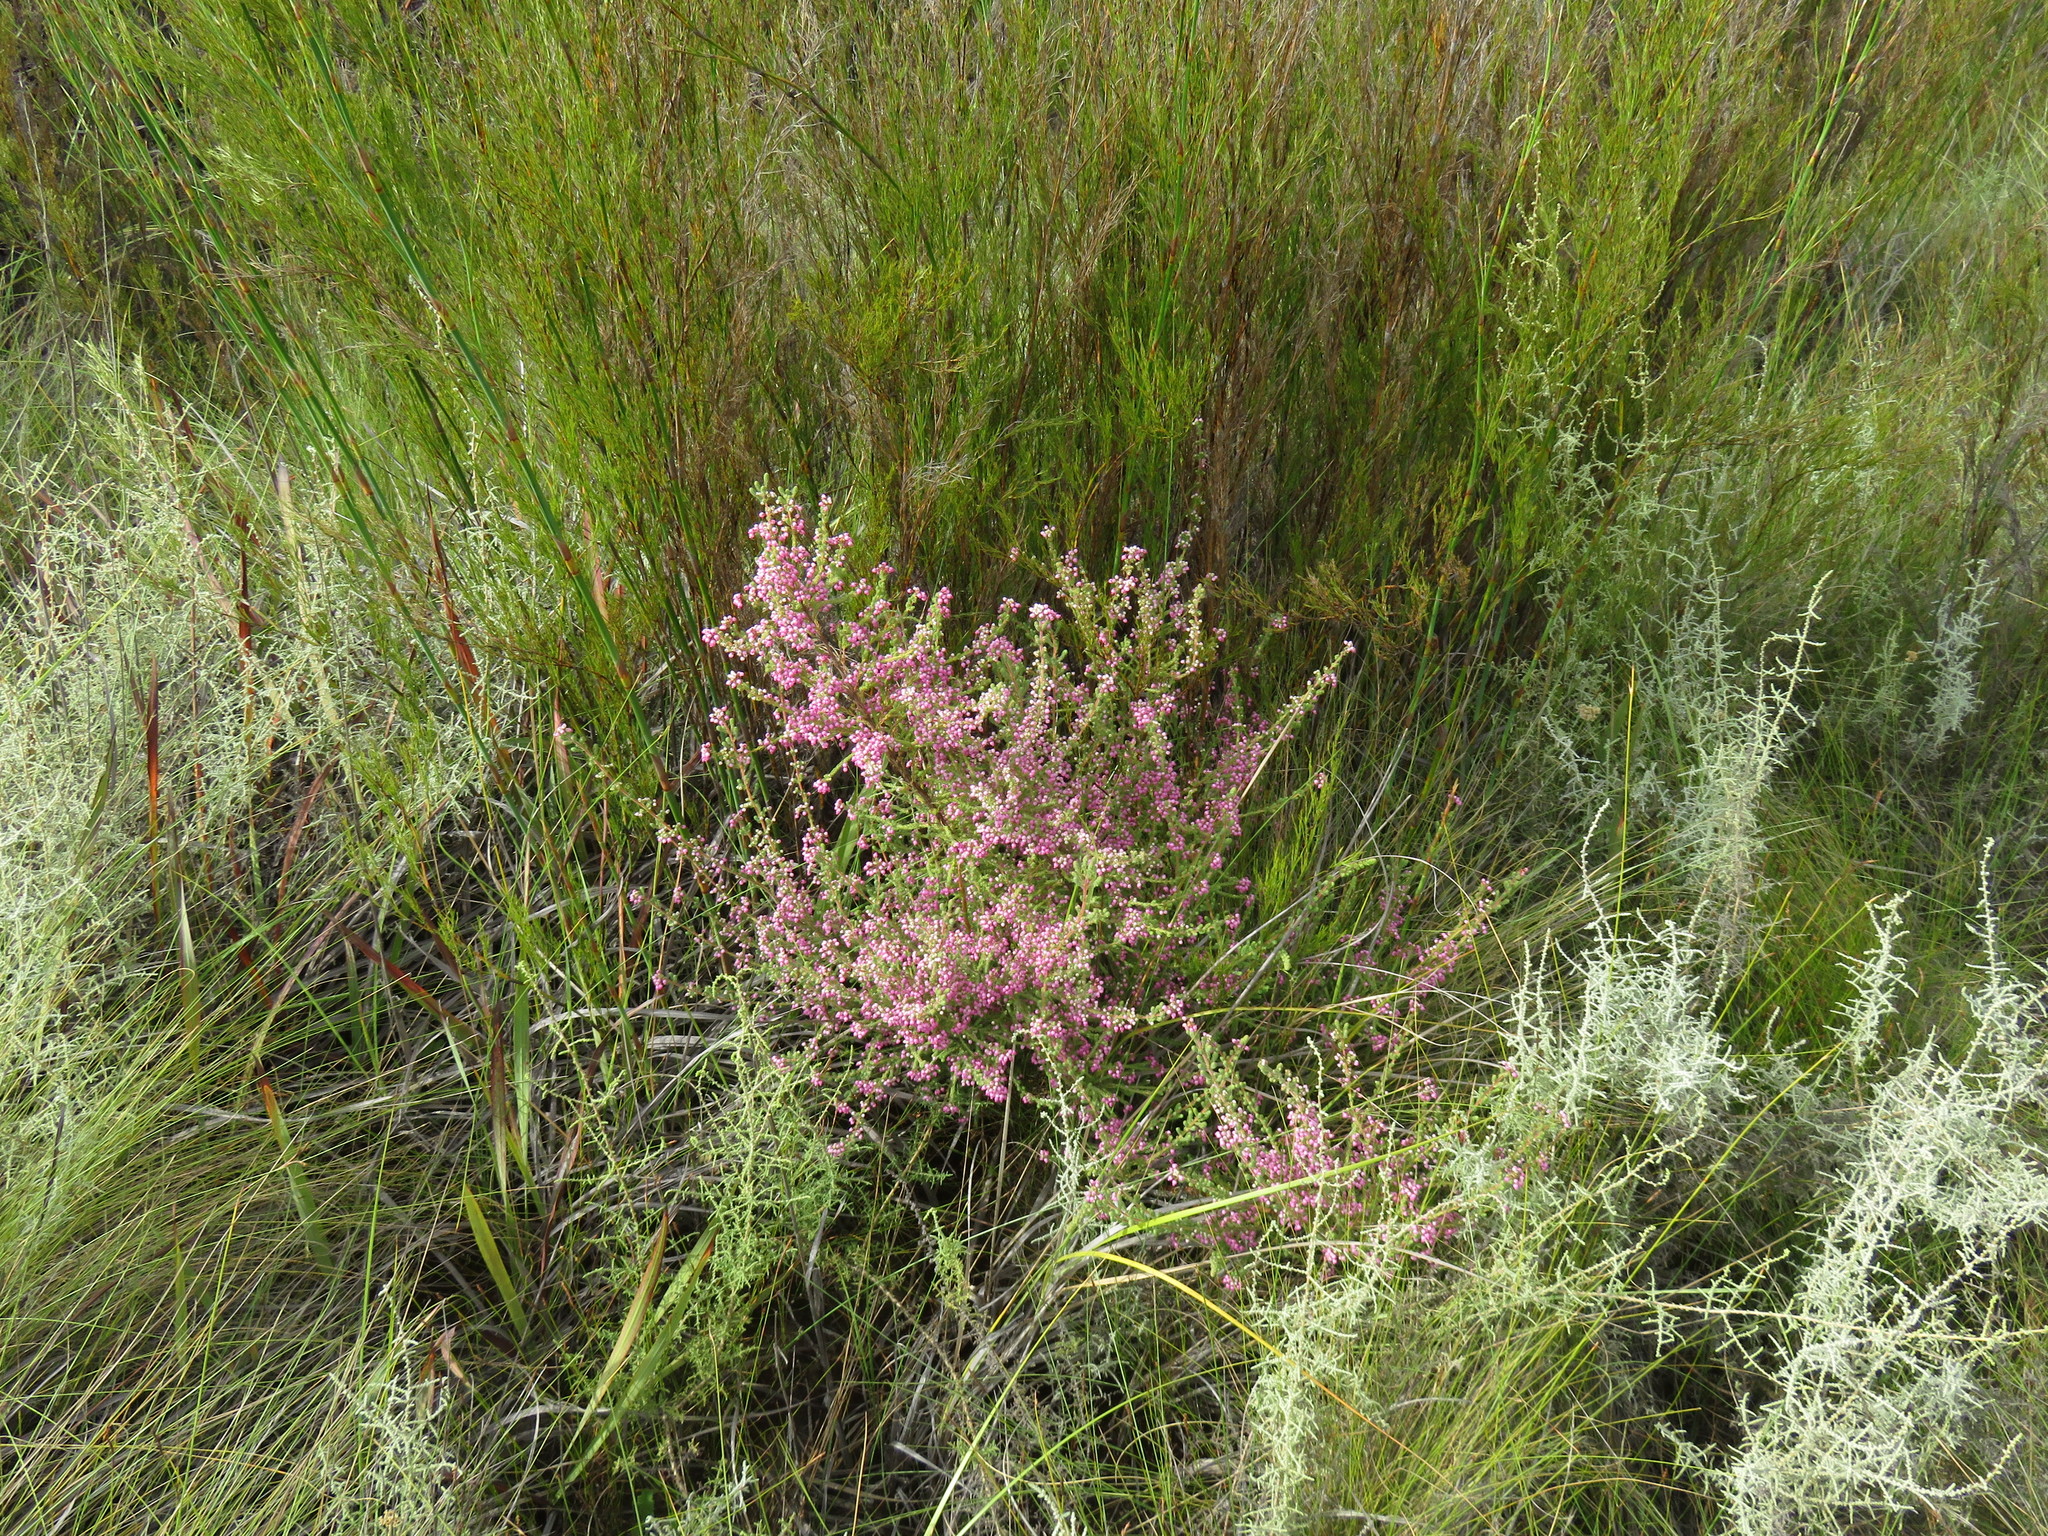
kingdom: Plantae
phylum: Tracheophyta
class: Magnoliopsida
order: Ericales
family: Ericaceae
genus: Erica
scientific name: Erica bergiana
